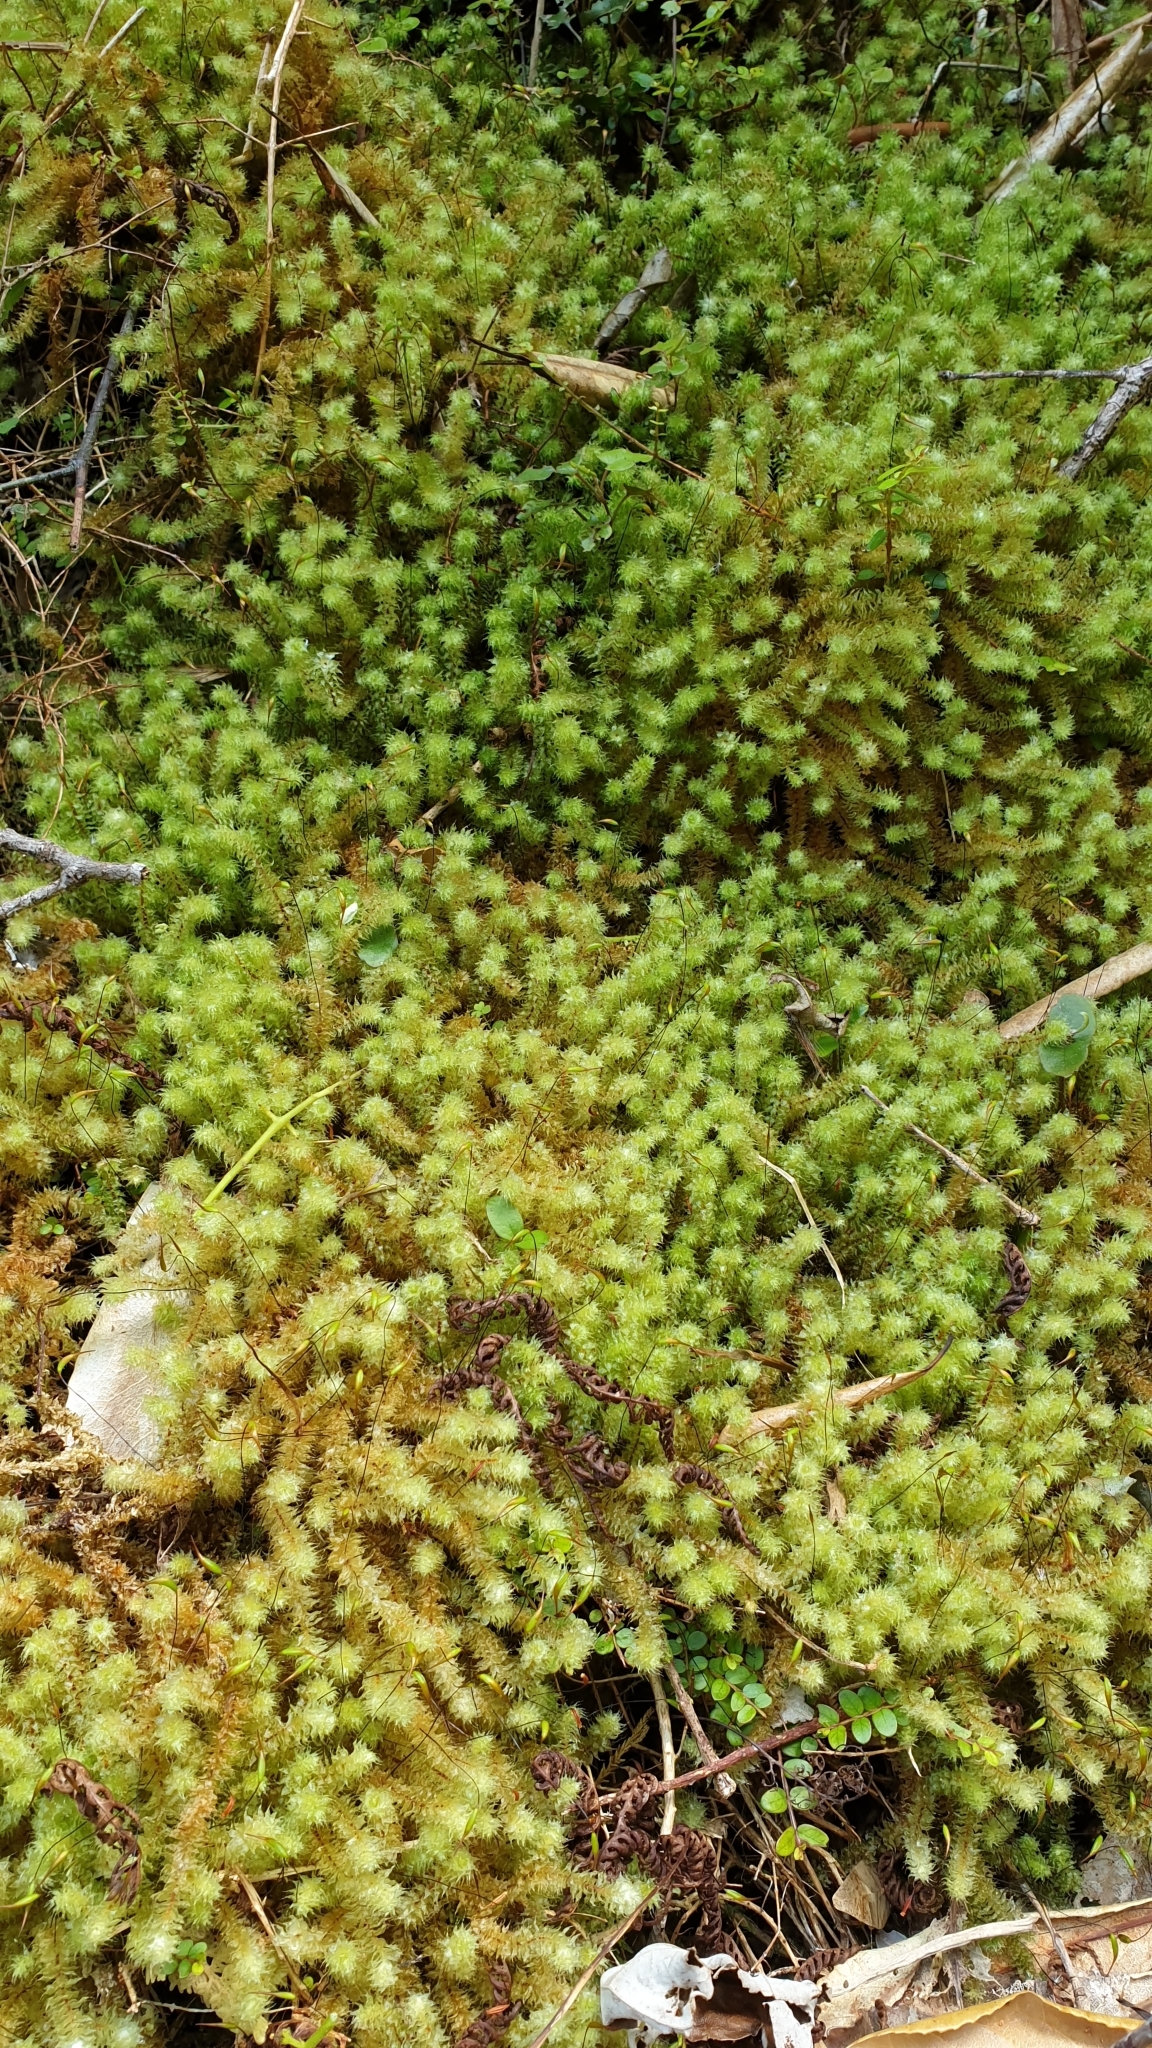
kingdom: Plantae
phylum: Bryophyta
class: Bryopsida
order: Ptychomniales
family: Ptychomniaceae
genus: Ptychomnion
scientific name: Ptychomnion aciculare
